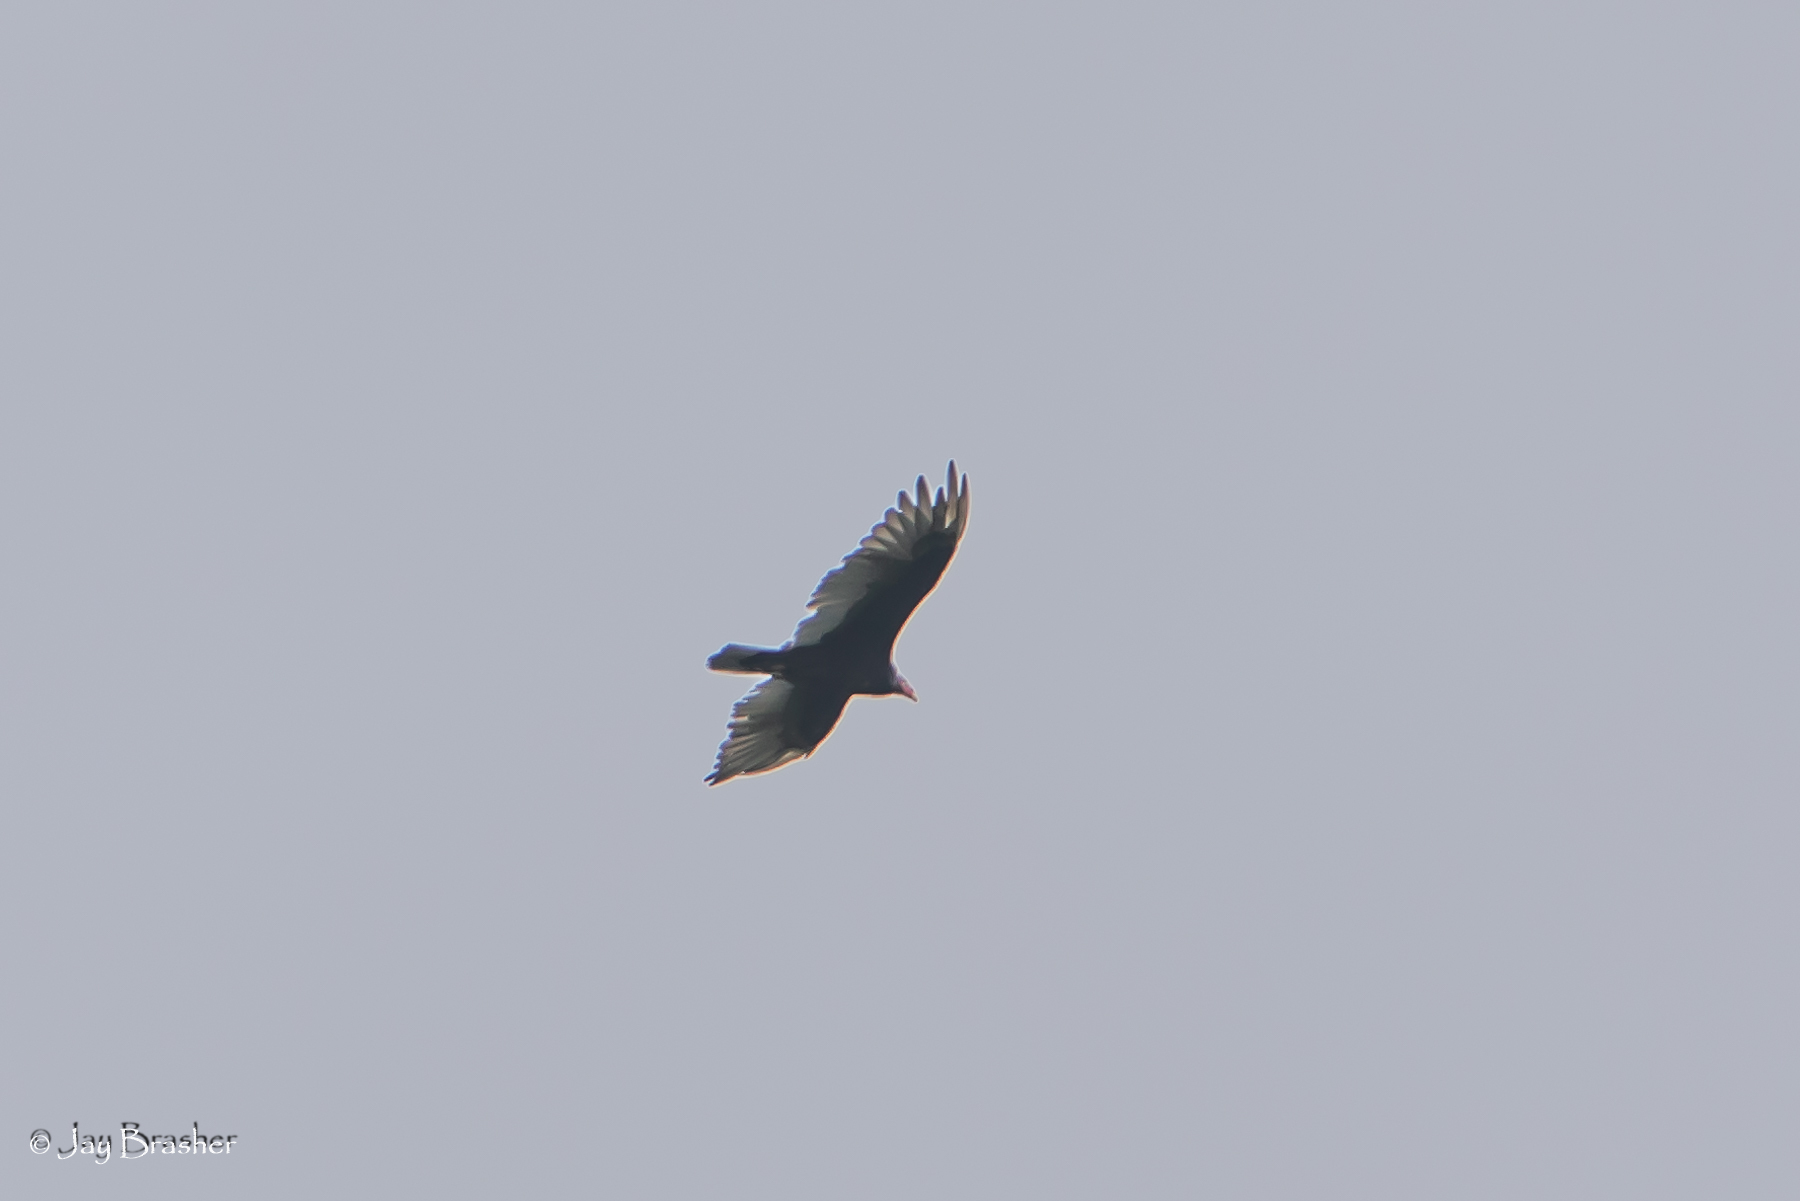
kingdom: Animalia
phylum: Chordata
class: Aves
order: Accipitriformes
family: Cathartidae
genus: Cathartes
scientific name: Cathartes aura
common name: Turkey vulture
